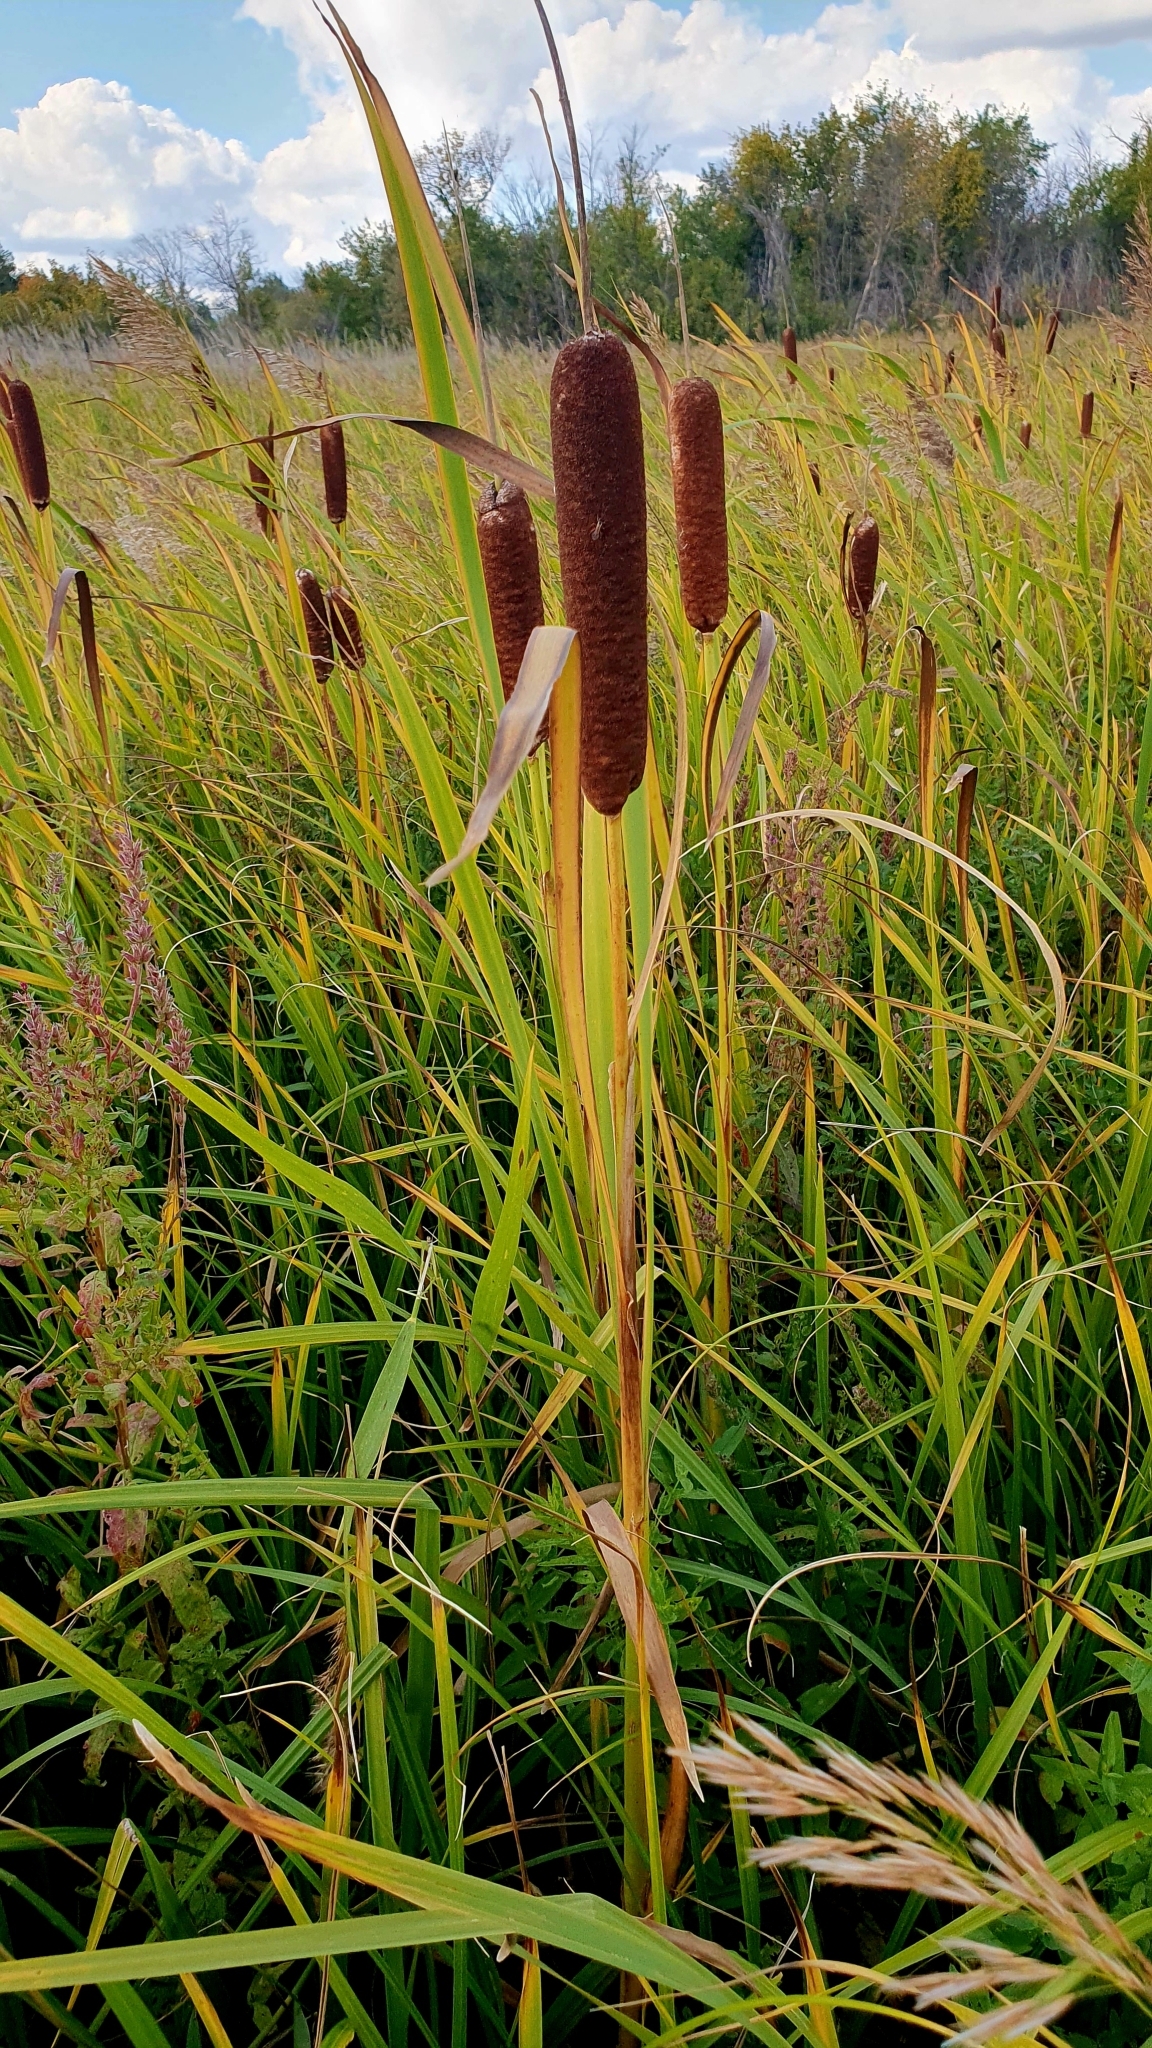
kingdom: Plantae
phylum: Tracheophyta
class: Liliopsida
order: Poales
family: Typhaceae
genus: Typha
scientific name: Typha latifolia
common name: Broadleaf cattail
